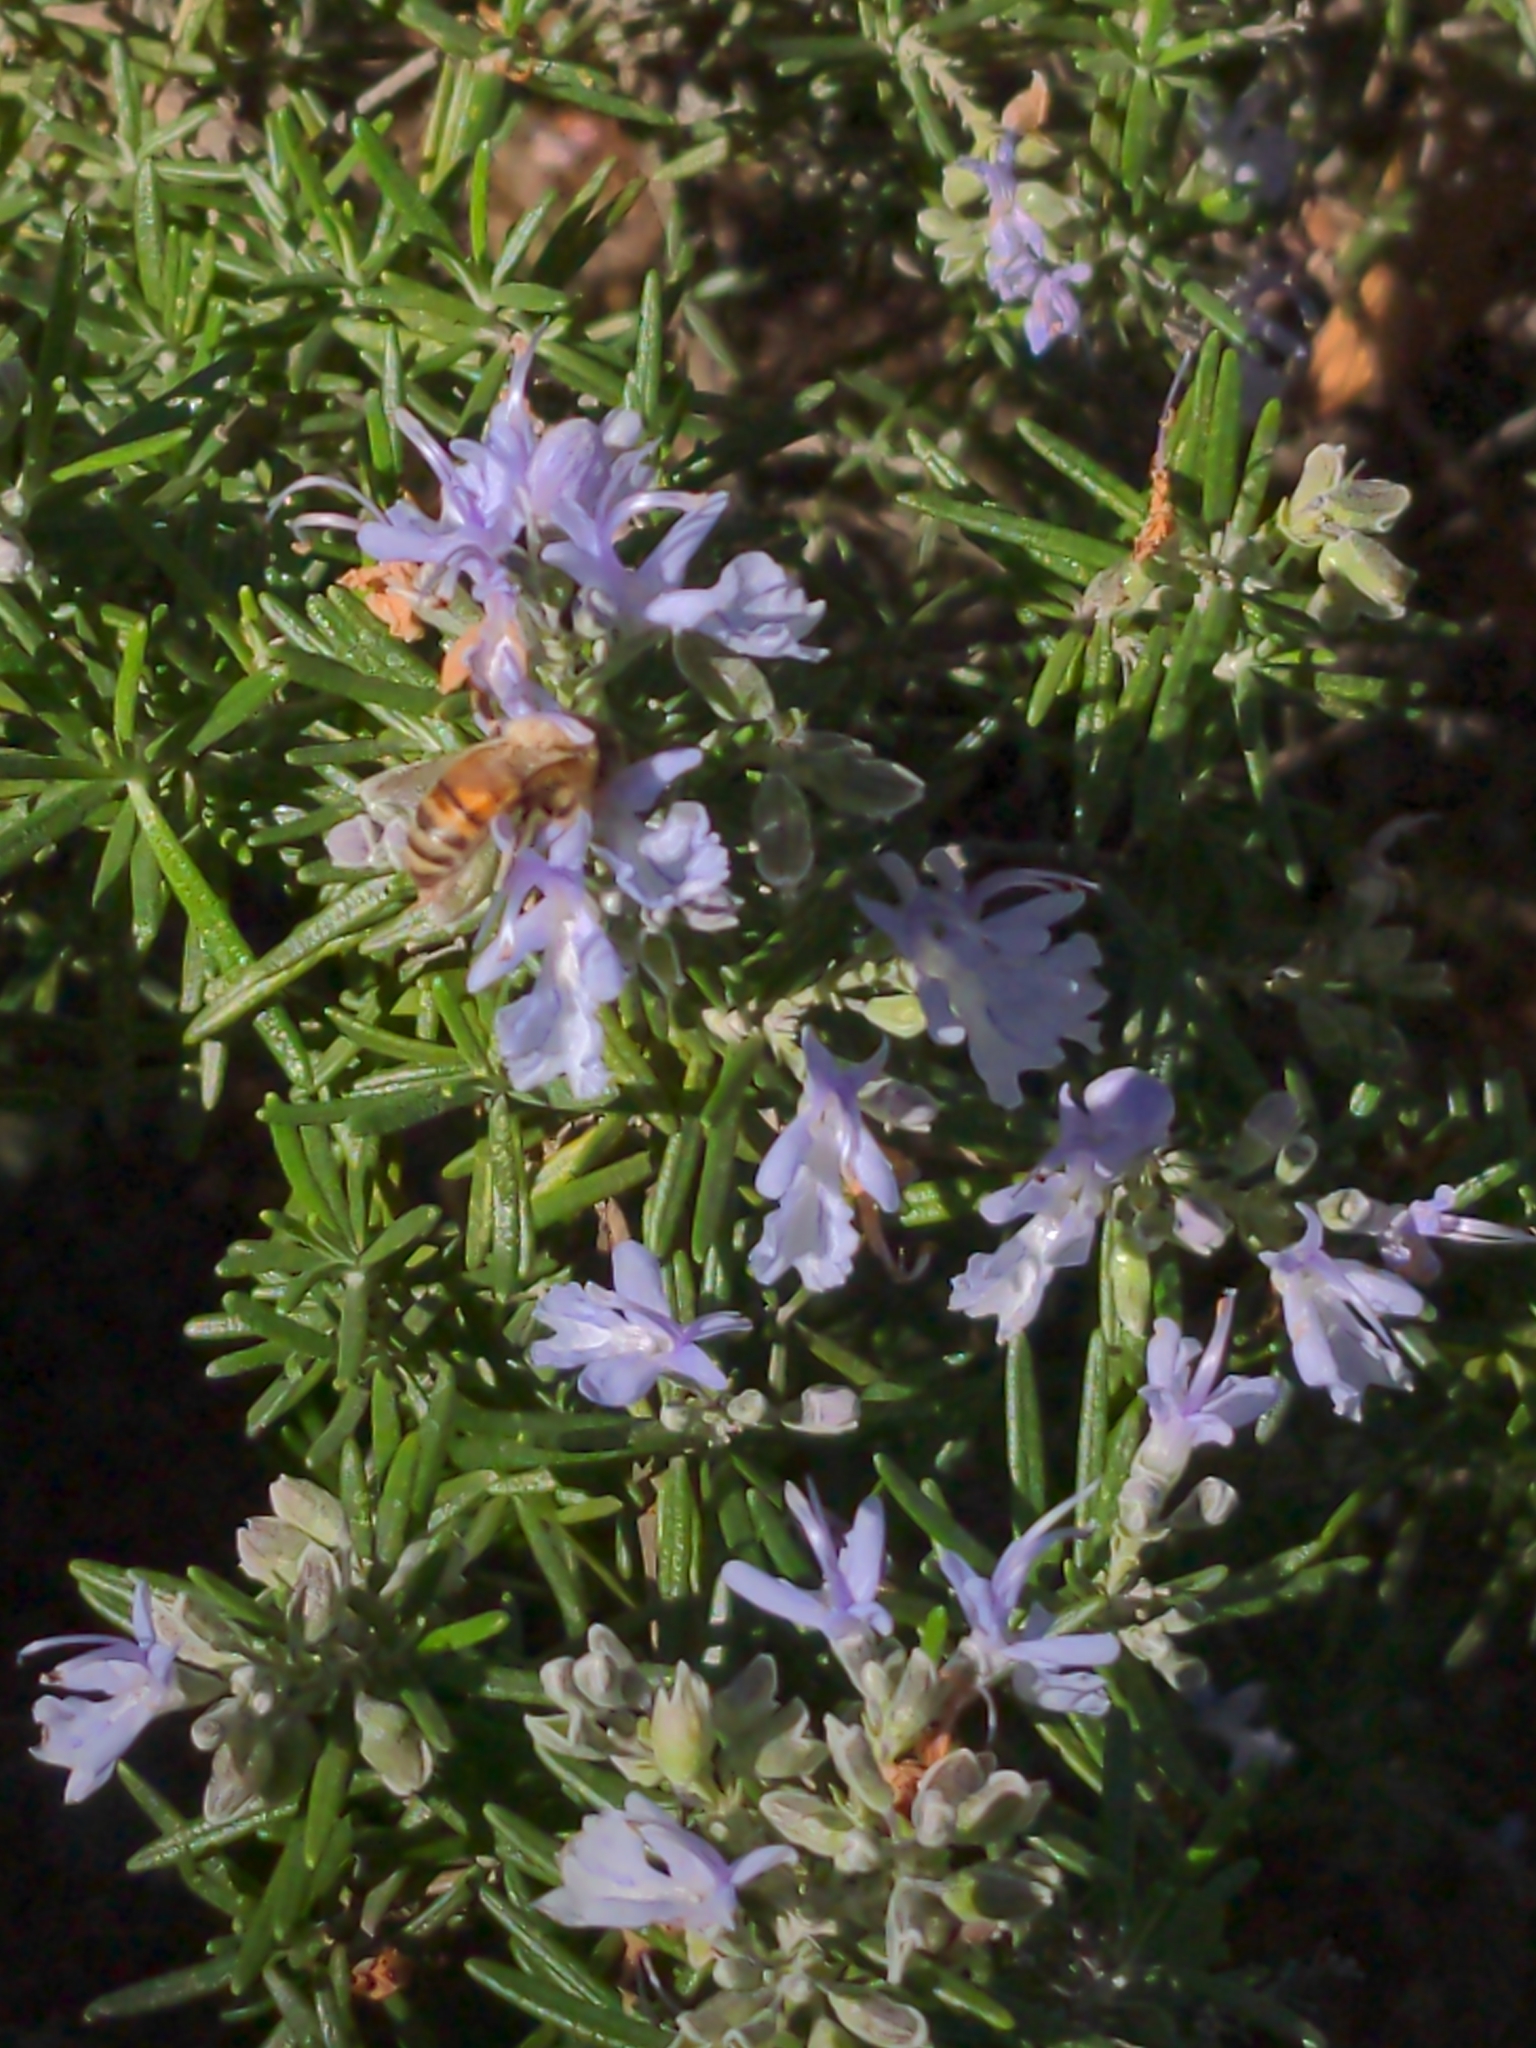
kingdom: Animalia
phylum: Arthropoda
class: Insecta
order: Hymenoptera
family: Apidae
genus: Apis
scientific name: Apis mellifera
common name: Honey bee
